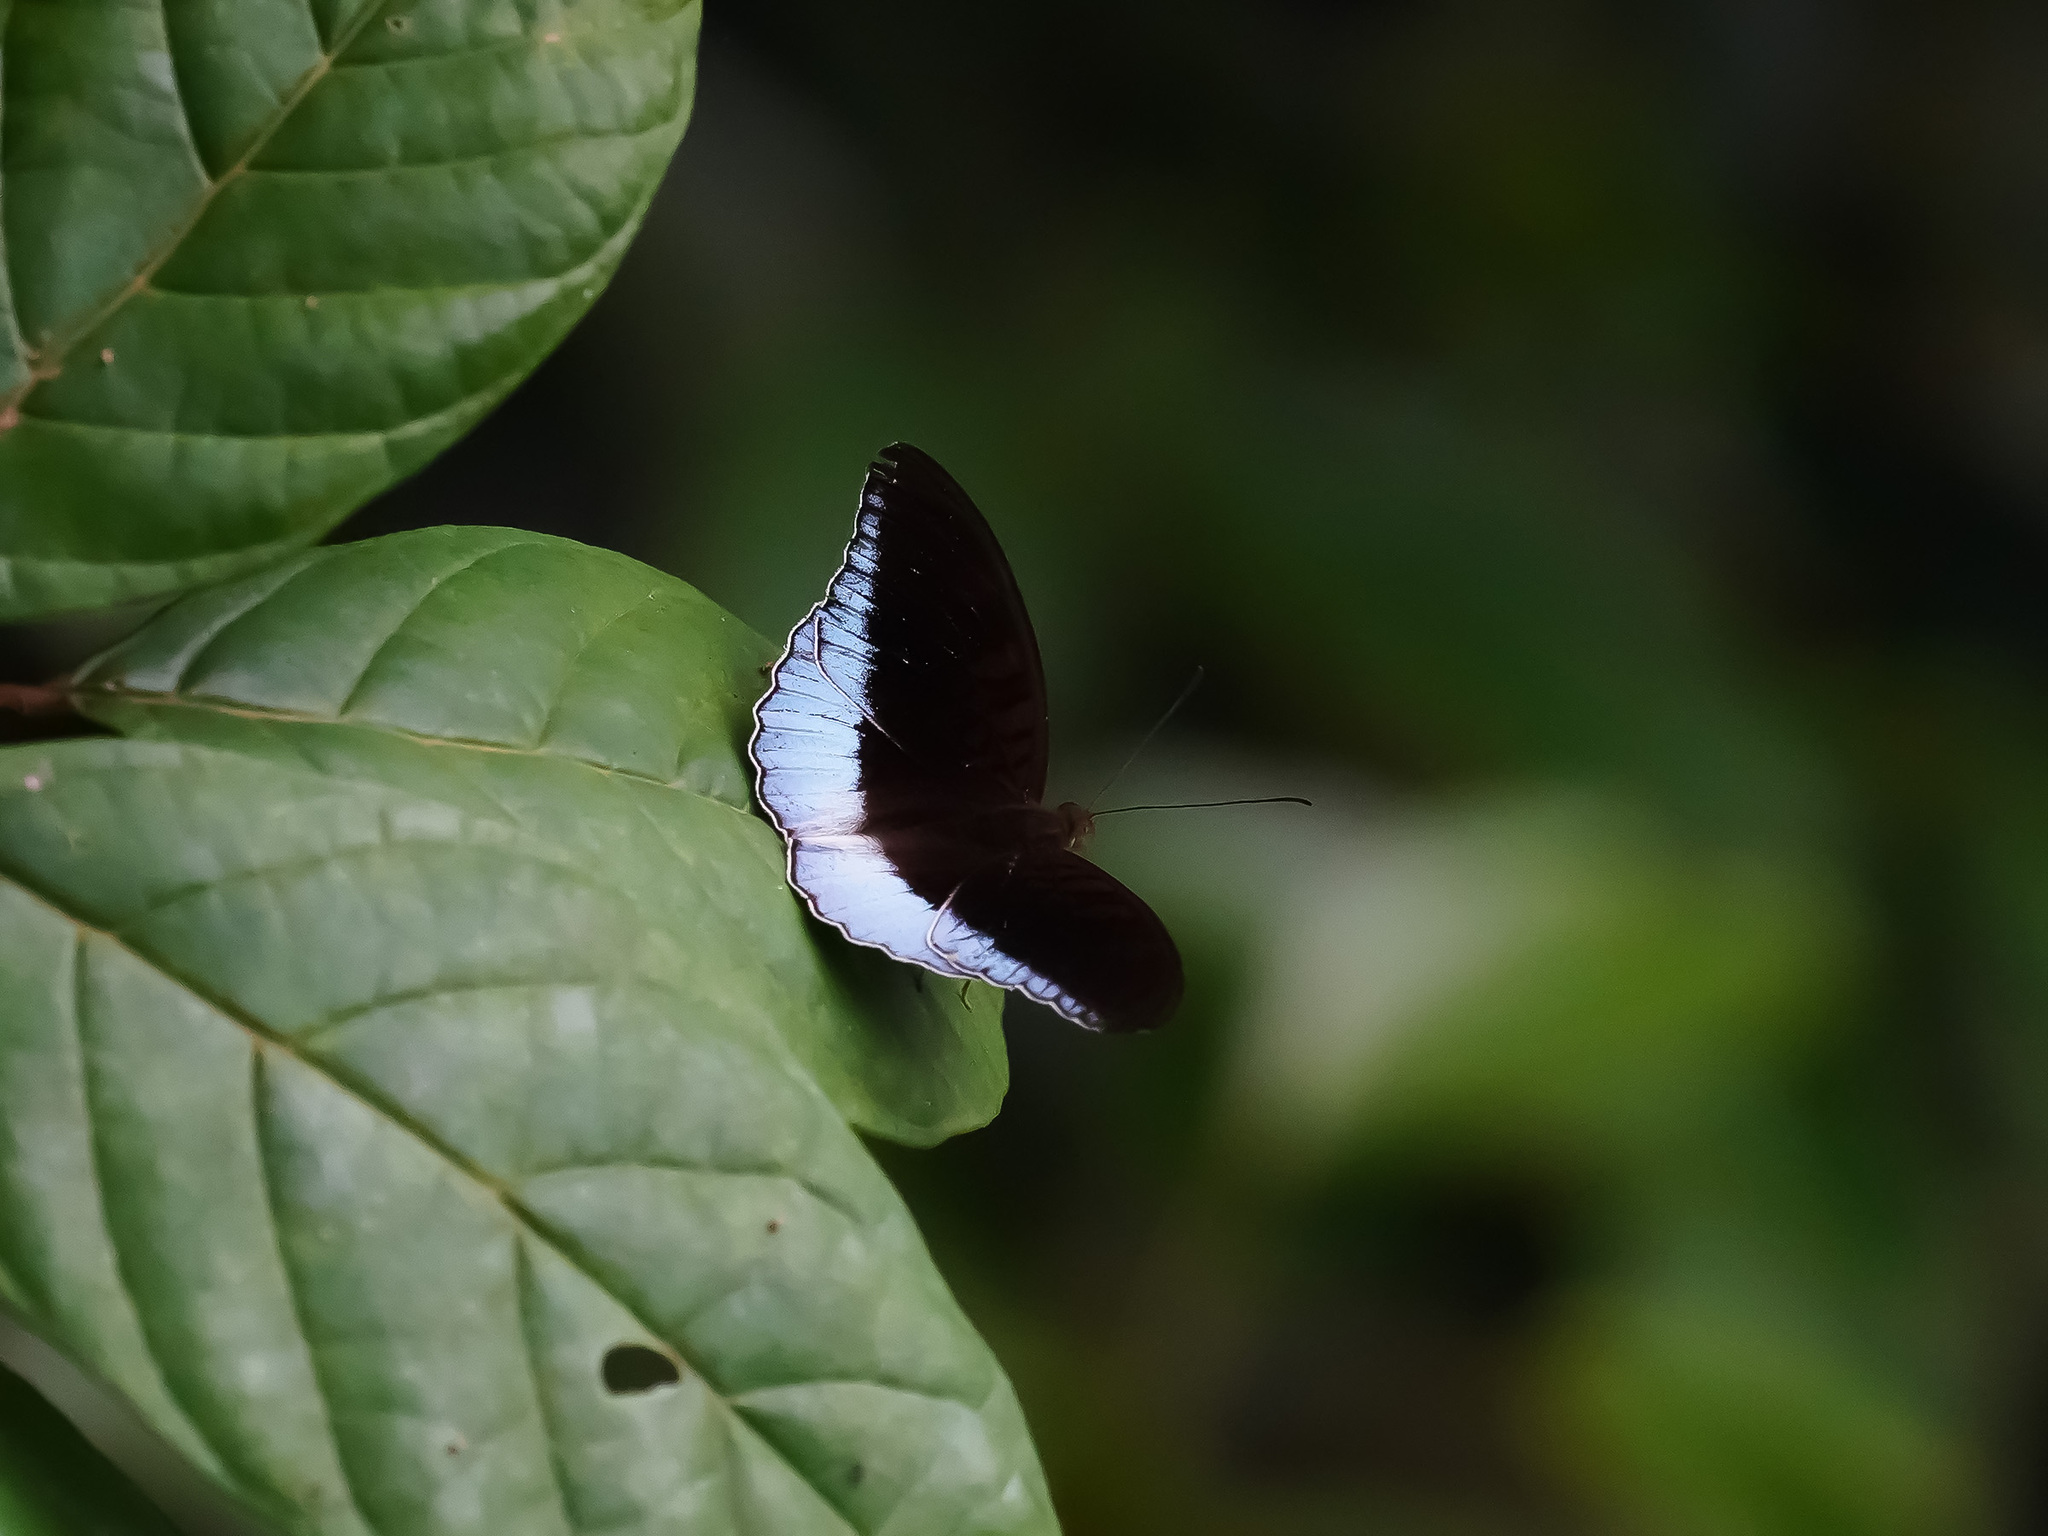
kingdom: Animalia
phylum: Arthropoda
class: Insecta
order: Lepidoptera
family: Nymphalidae
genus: Tanaecia
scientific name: Tanaecia iapis
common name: Horsfield's baron
